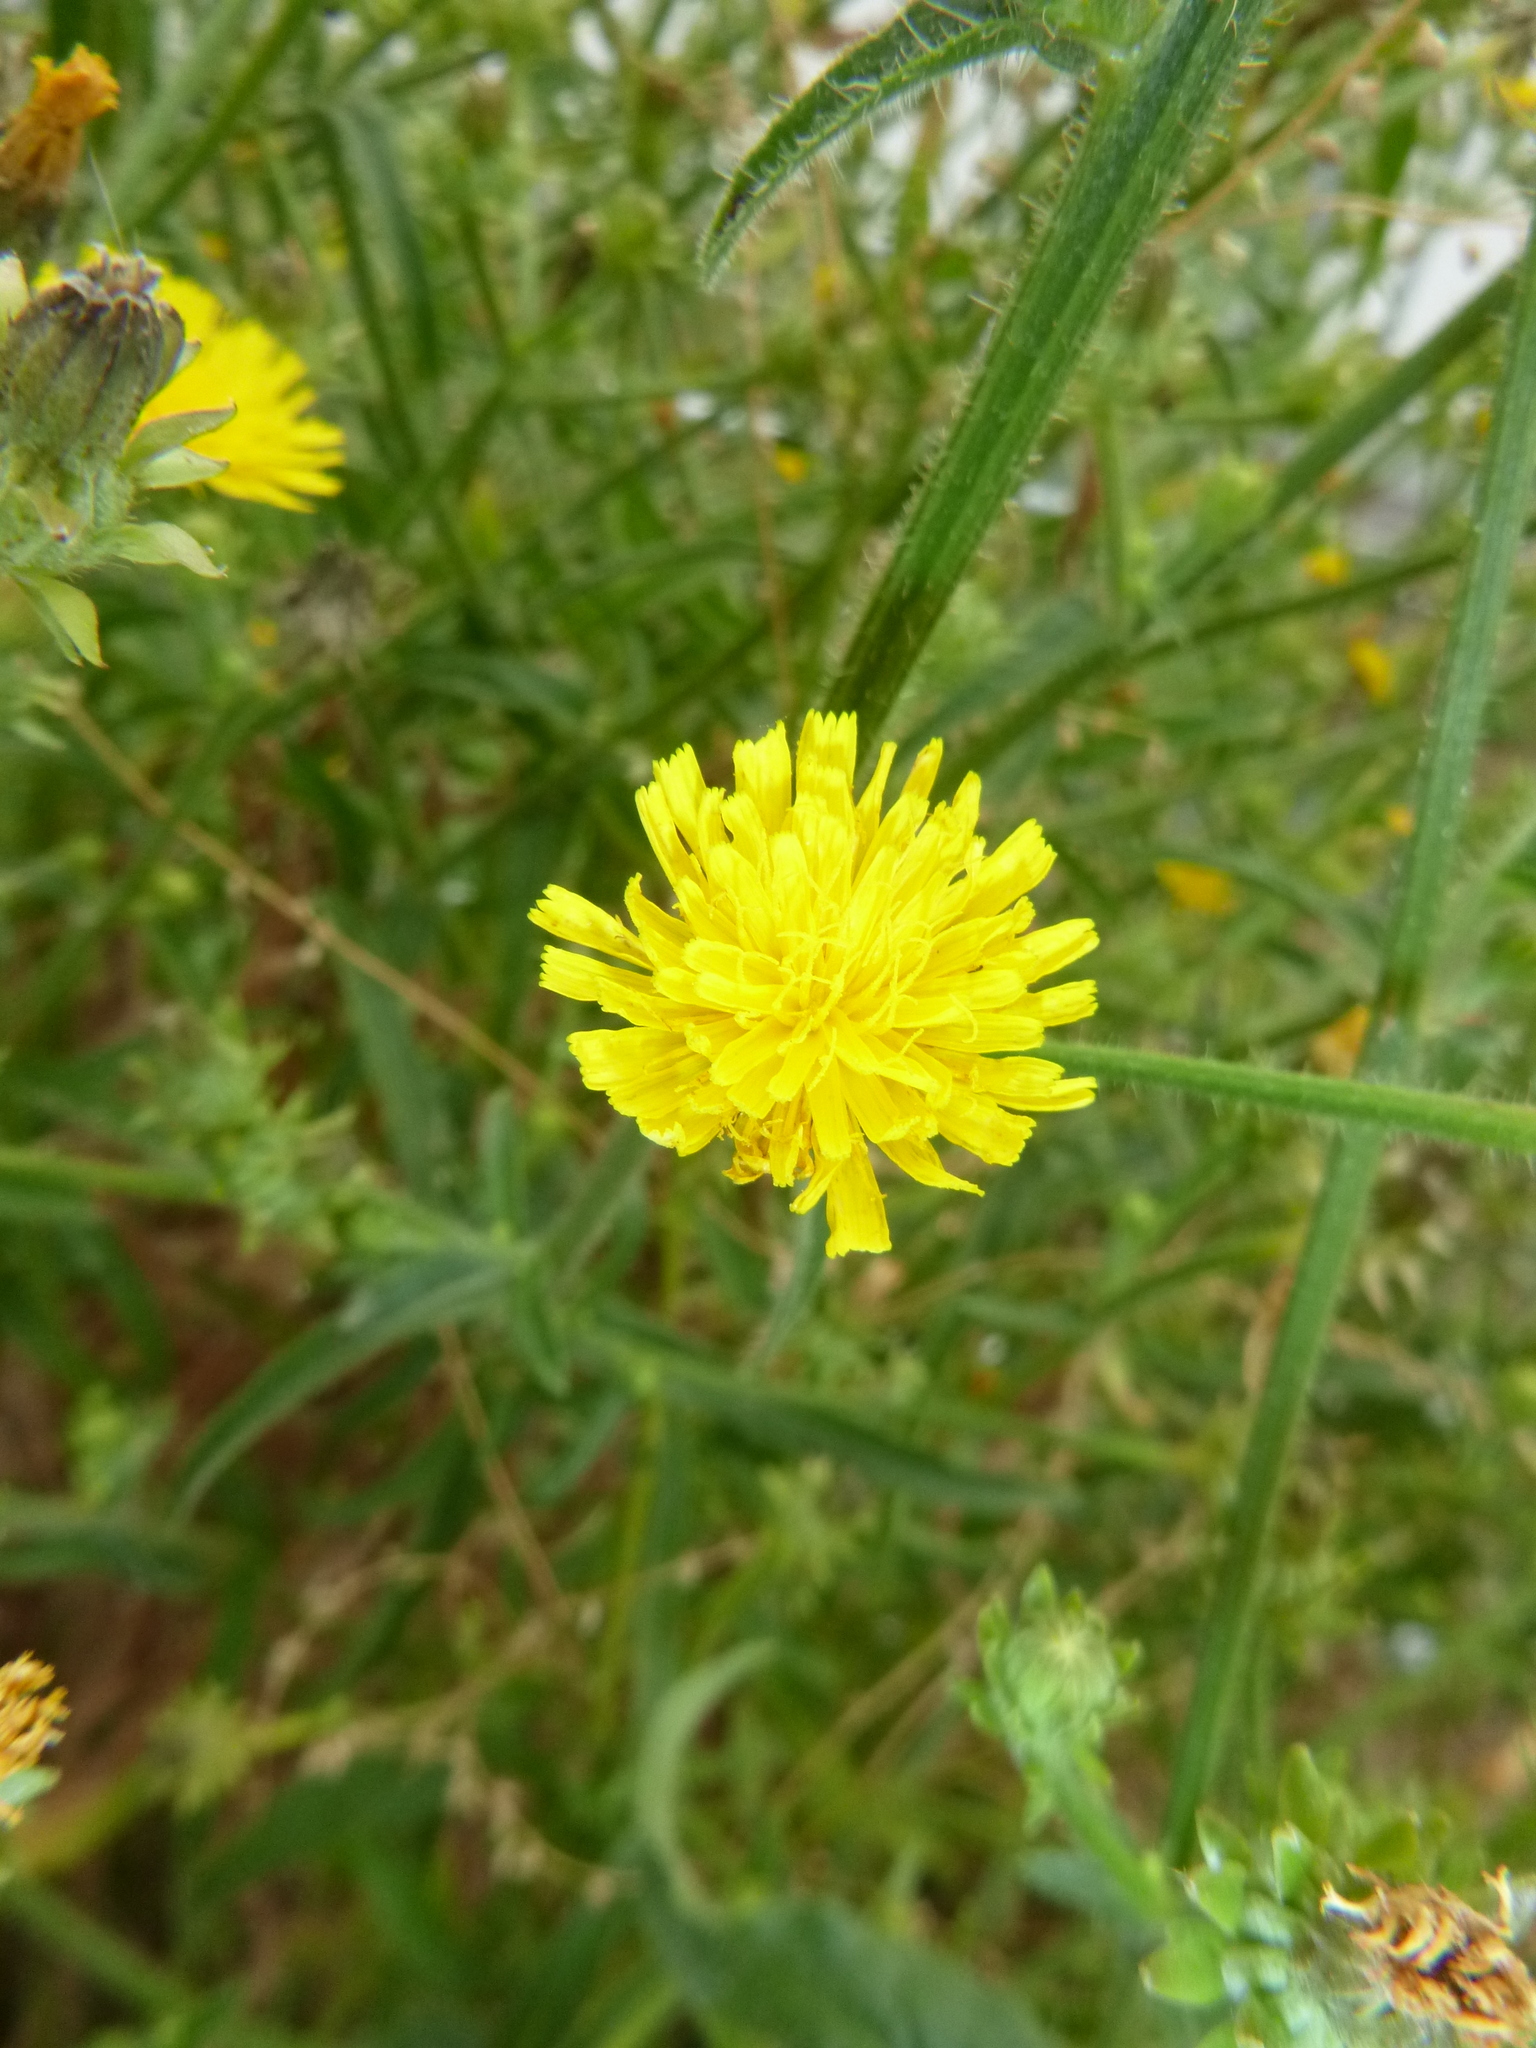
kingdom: Plantae
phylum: Tracheophyta
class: Magnoliopsida
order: Asterales
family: Asteraceae
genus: Picris
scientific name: Picris hieracioides
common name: Hawkweed oxtongue
